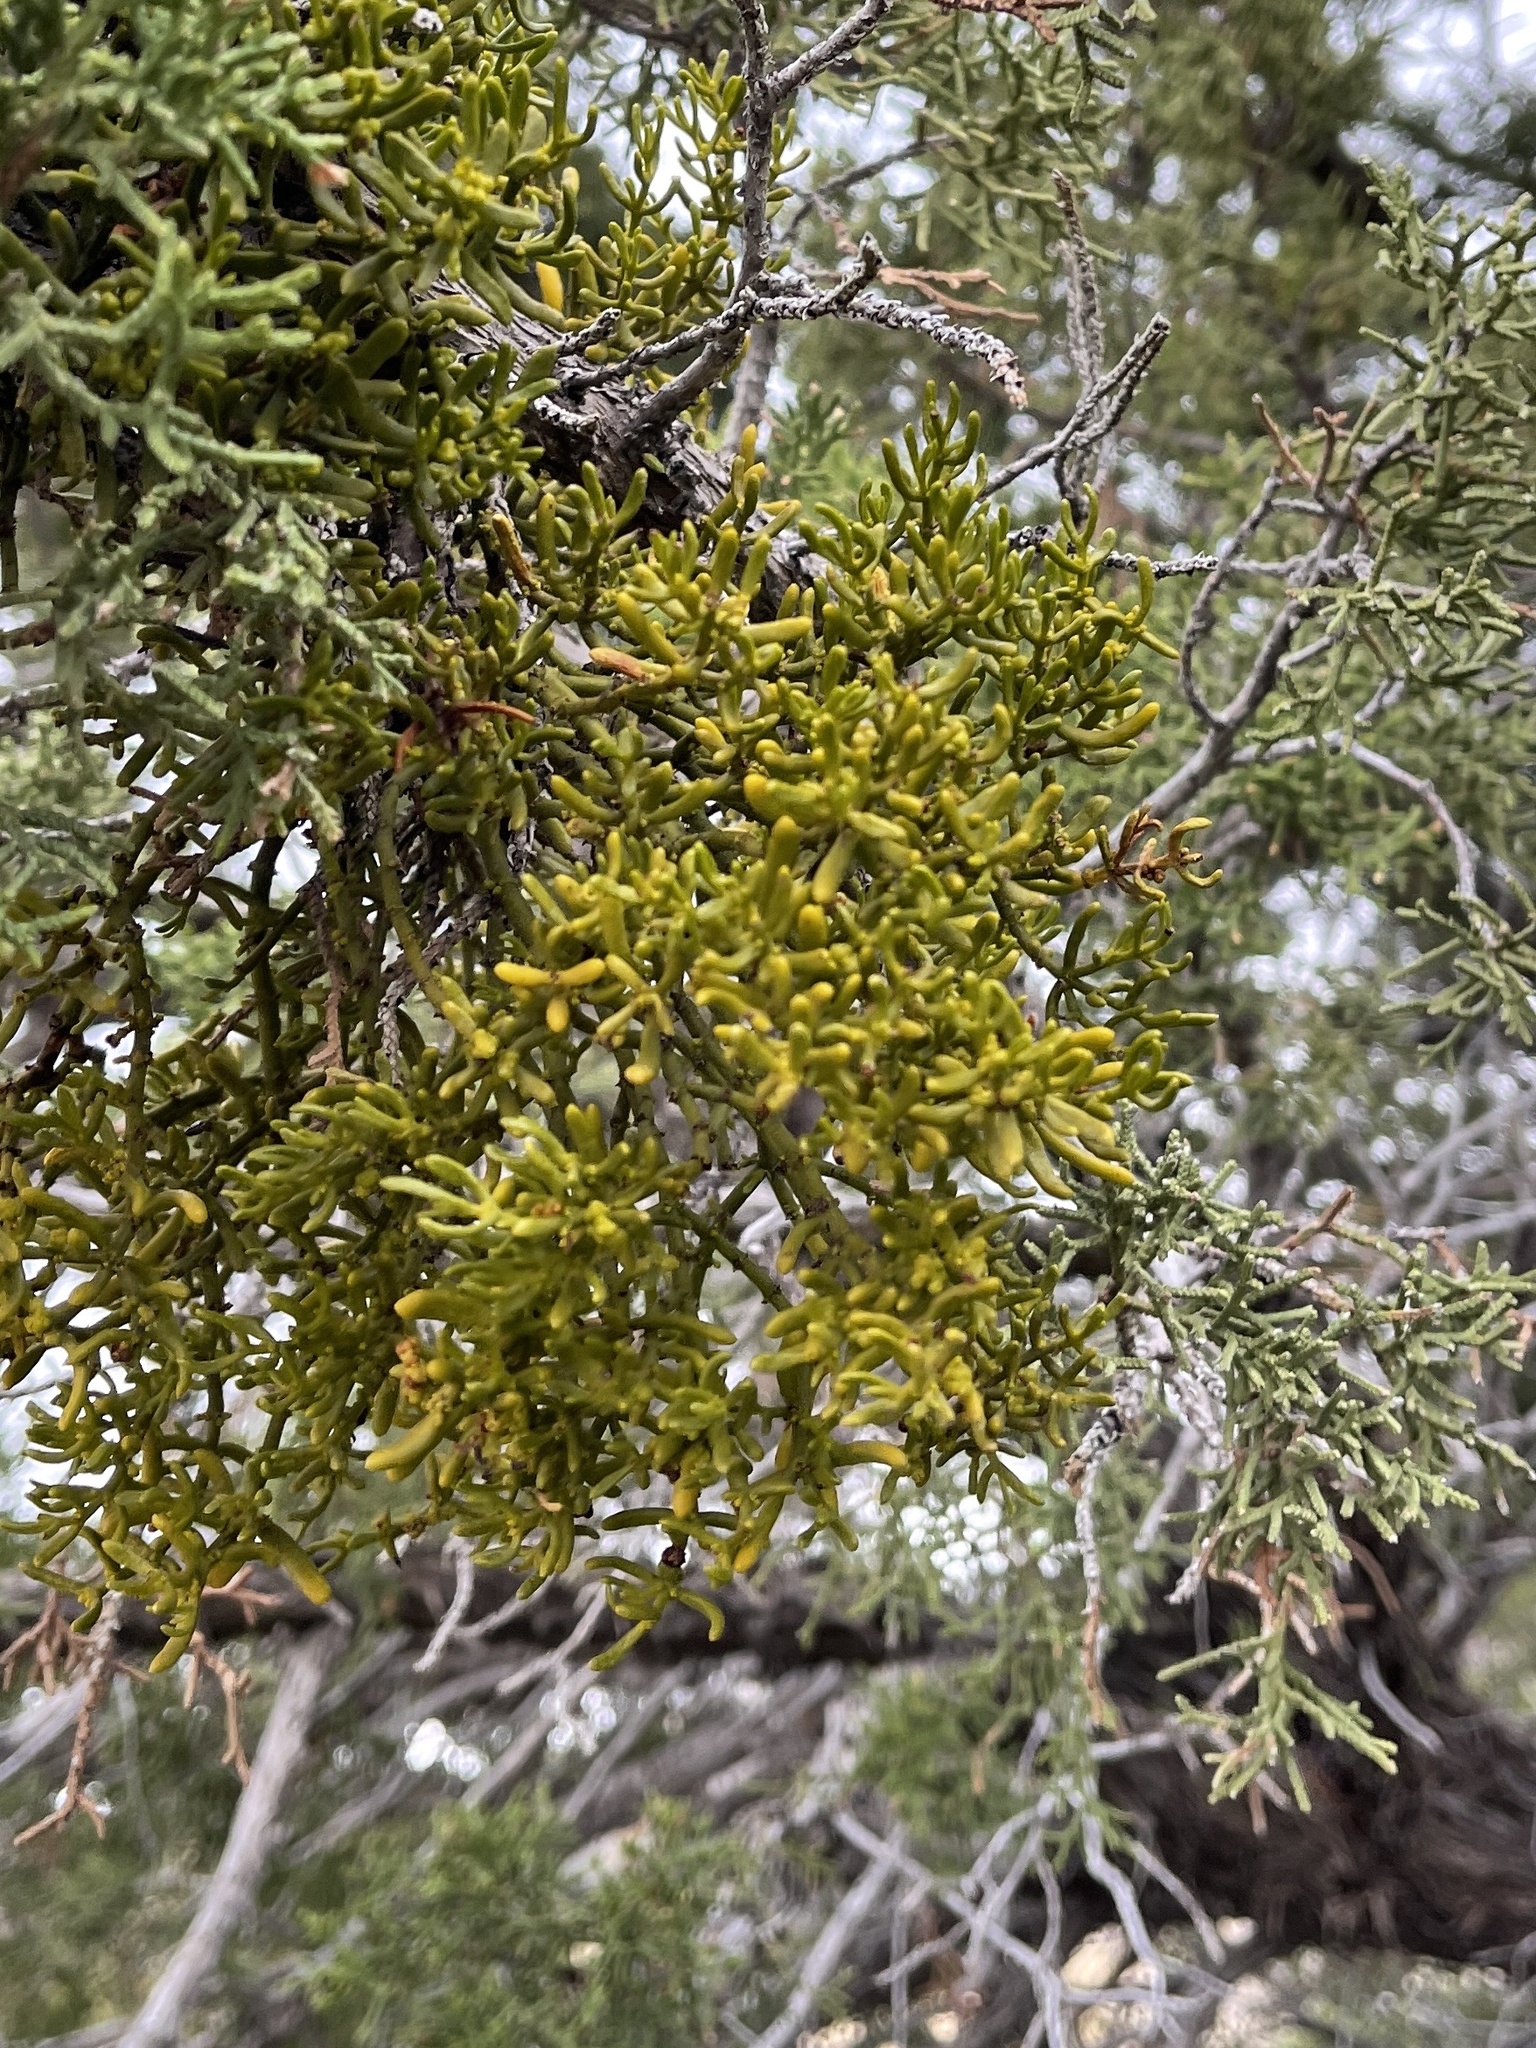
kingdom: Plantae
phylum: Tracheophyta
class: Magnoliopsida
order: Santalales
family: Viscaceae
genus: Phoradendron
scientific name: Phoradendron hawksworthii
